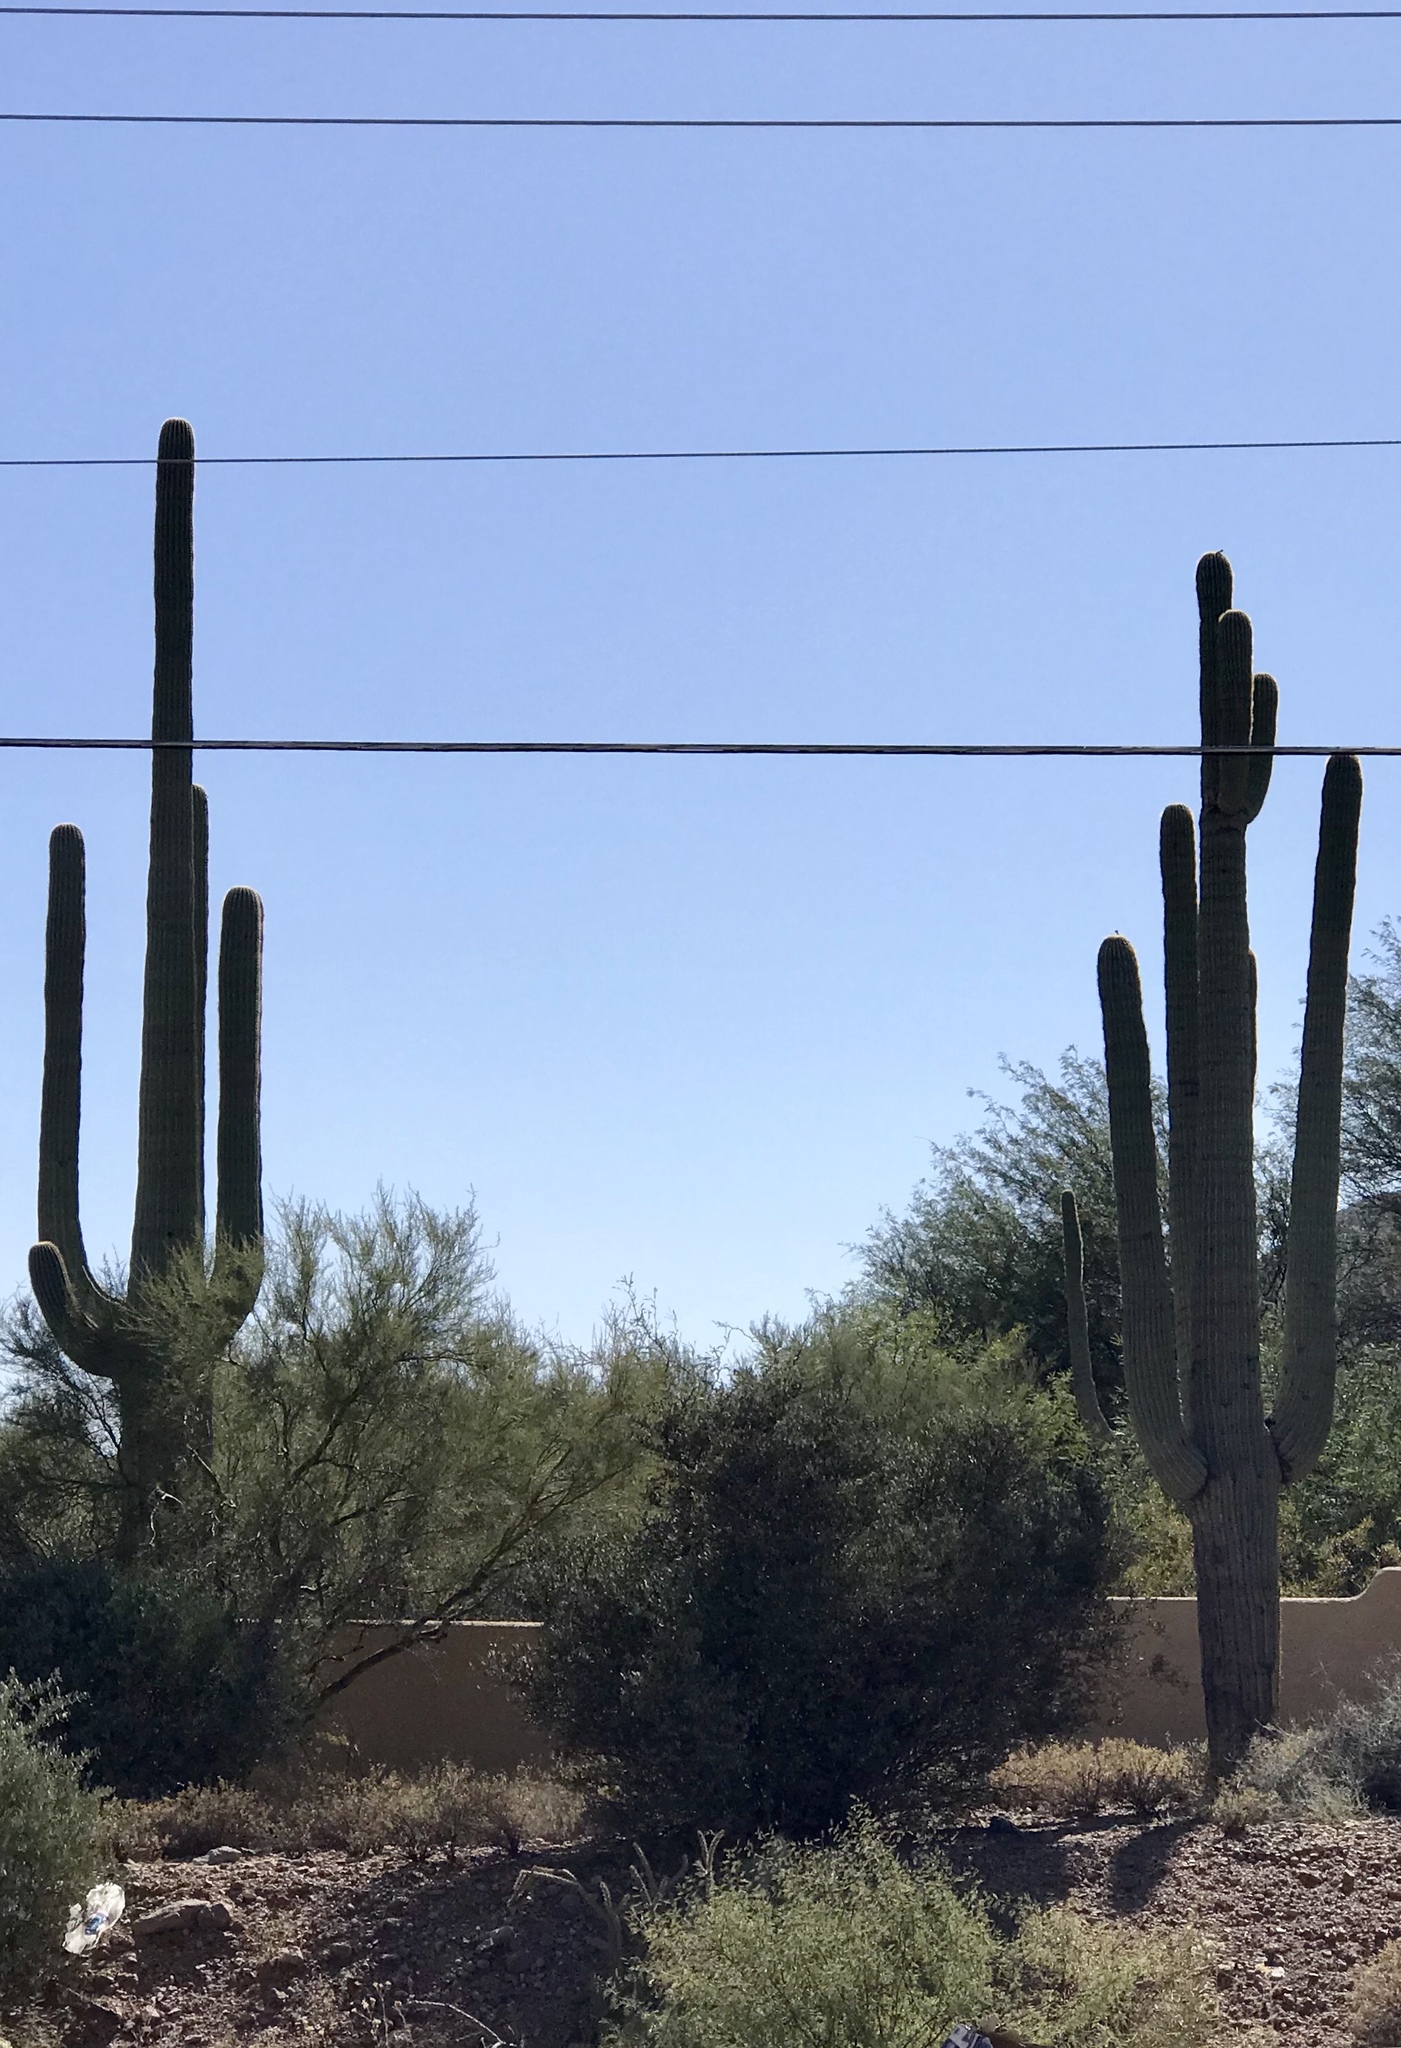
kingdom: Plantae
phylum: Tracheophyta
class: Magnoliopsida
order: Caryophyllales
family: Cactaceae
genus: Carnegiea
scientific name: Carnegiea gigantea
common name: Saguaro
